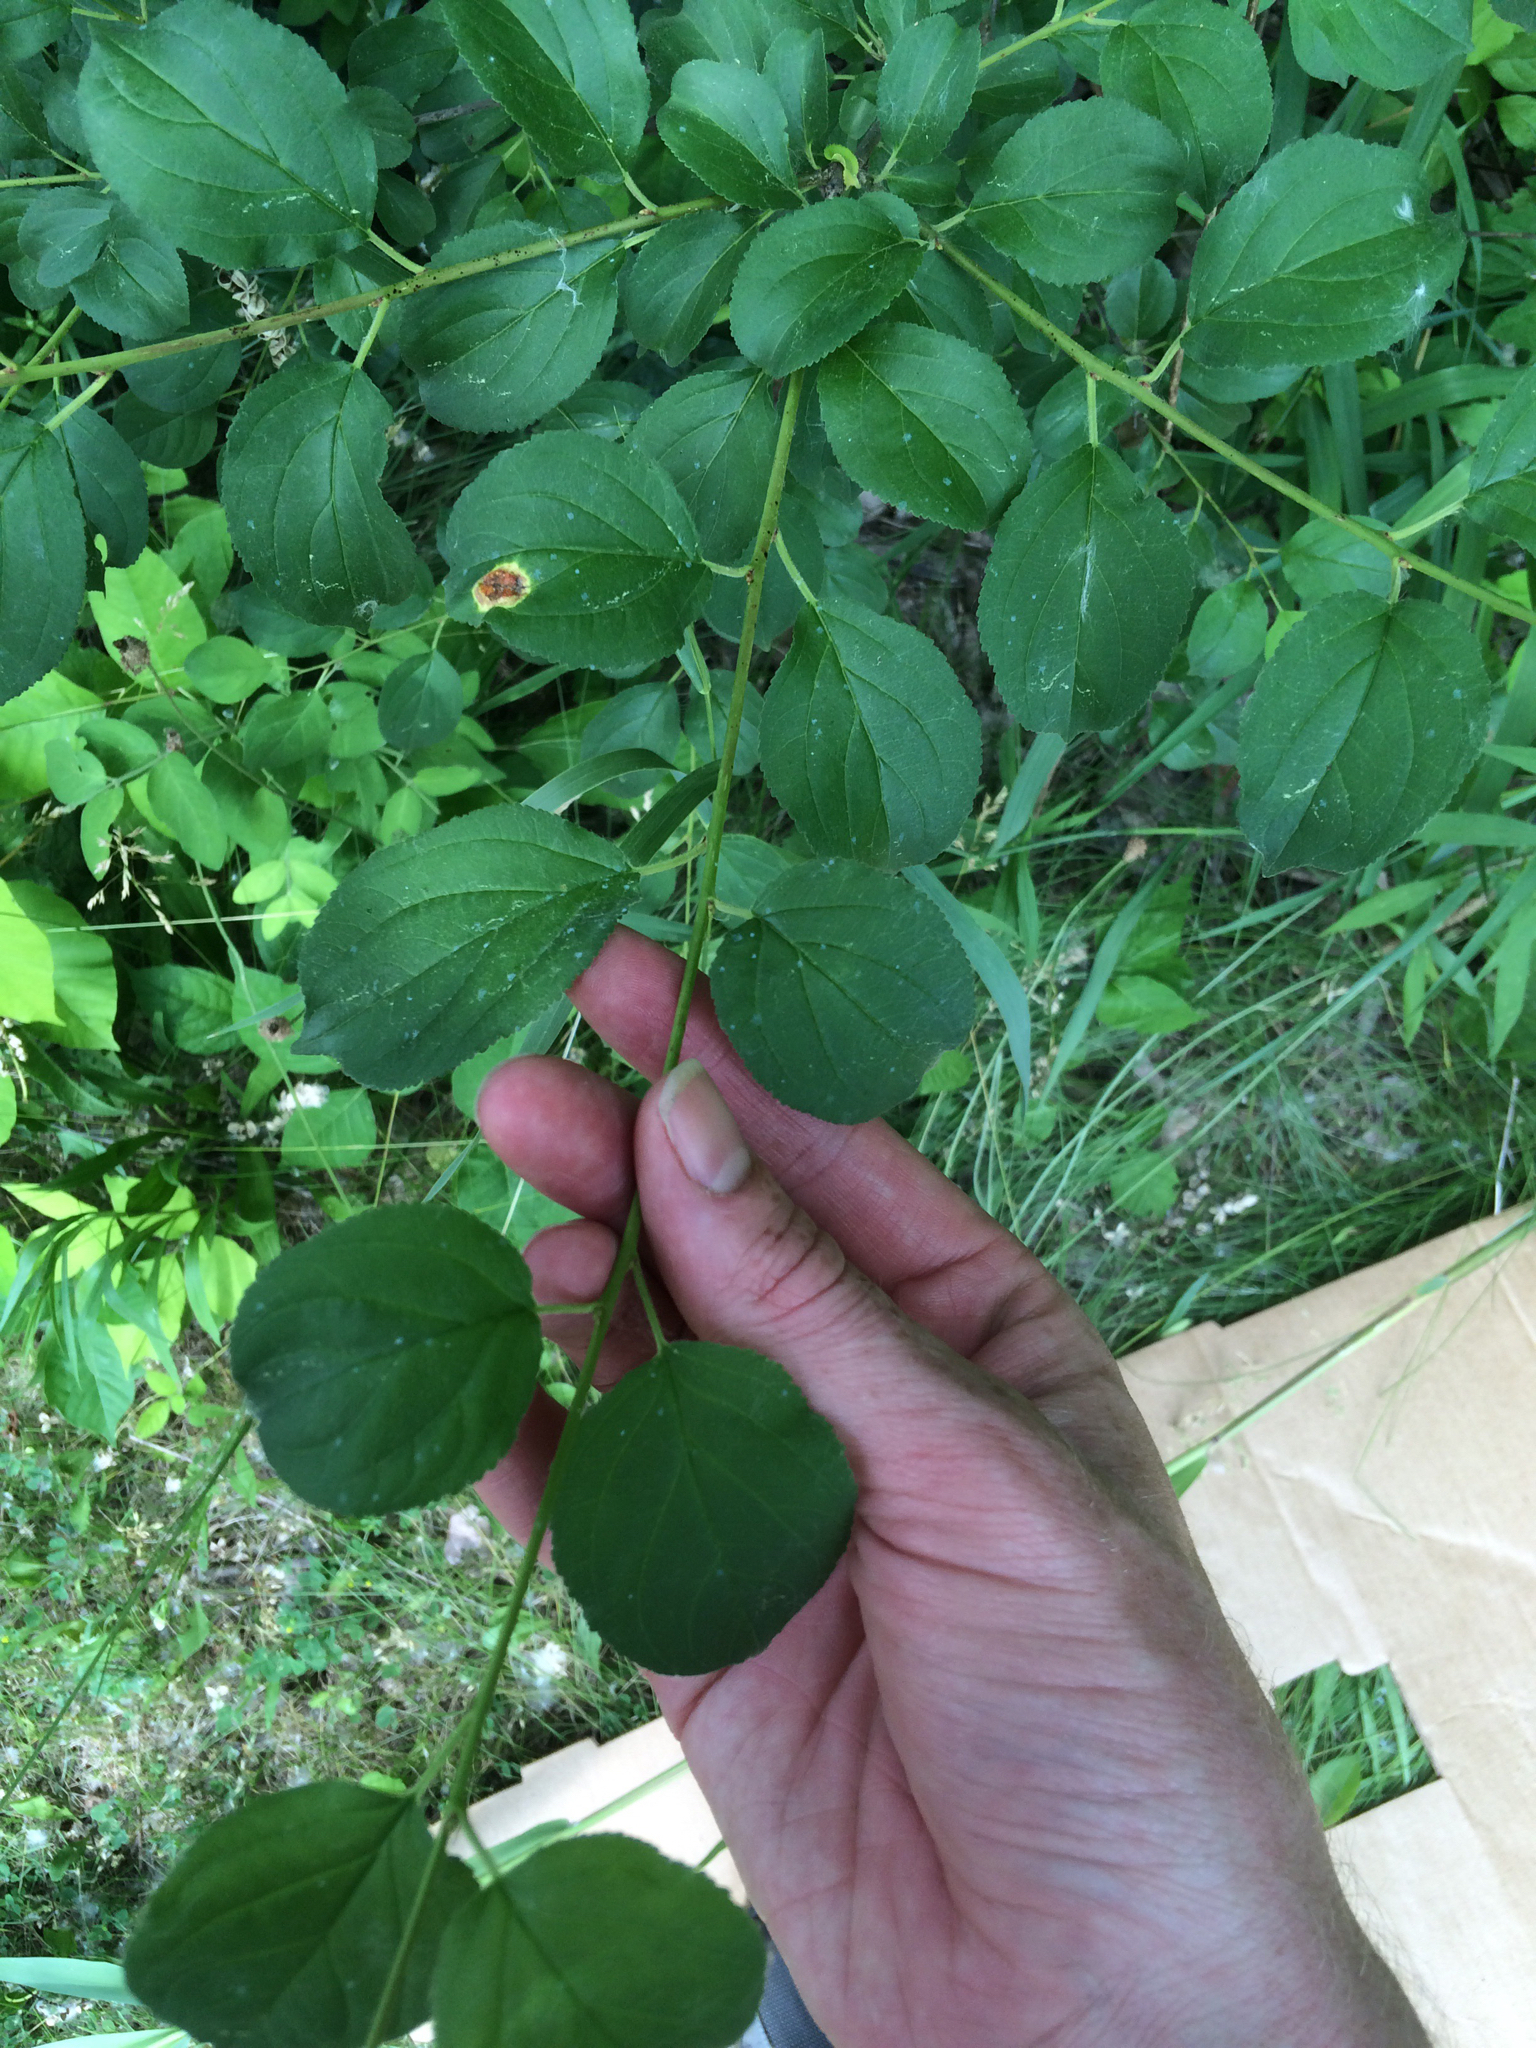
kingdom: Plantae
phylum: Tracheophyta
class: Magnoliopsida
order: Rosales
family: Rhamnaceae
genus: Rhamnus
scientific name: Rhamnus cathartica
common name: Common buckthorn
